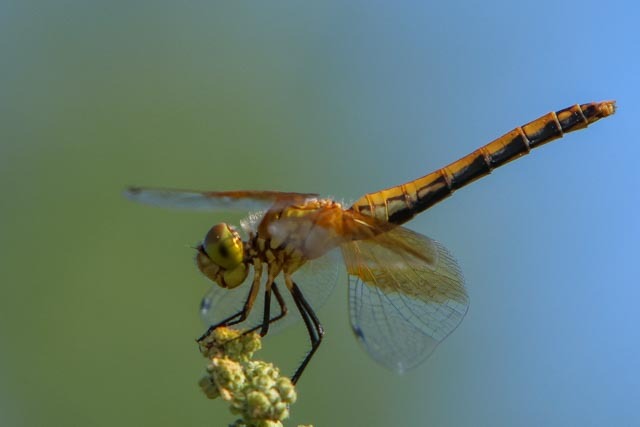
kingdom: Animalia
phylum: Arthropoda
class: Insecta
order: Odonata
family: Libellulidae
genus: Sympetrum
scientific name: Sympetrum semicinctum
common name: Band-winged meadowhawk
